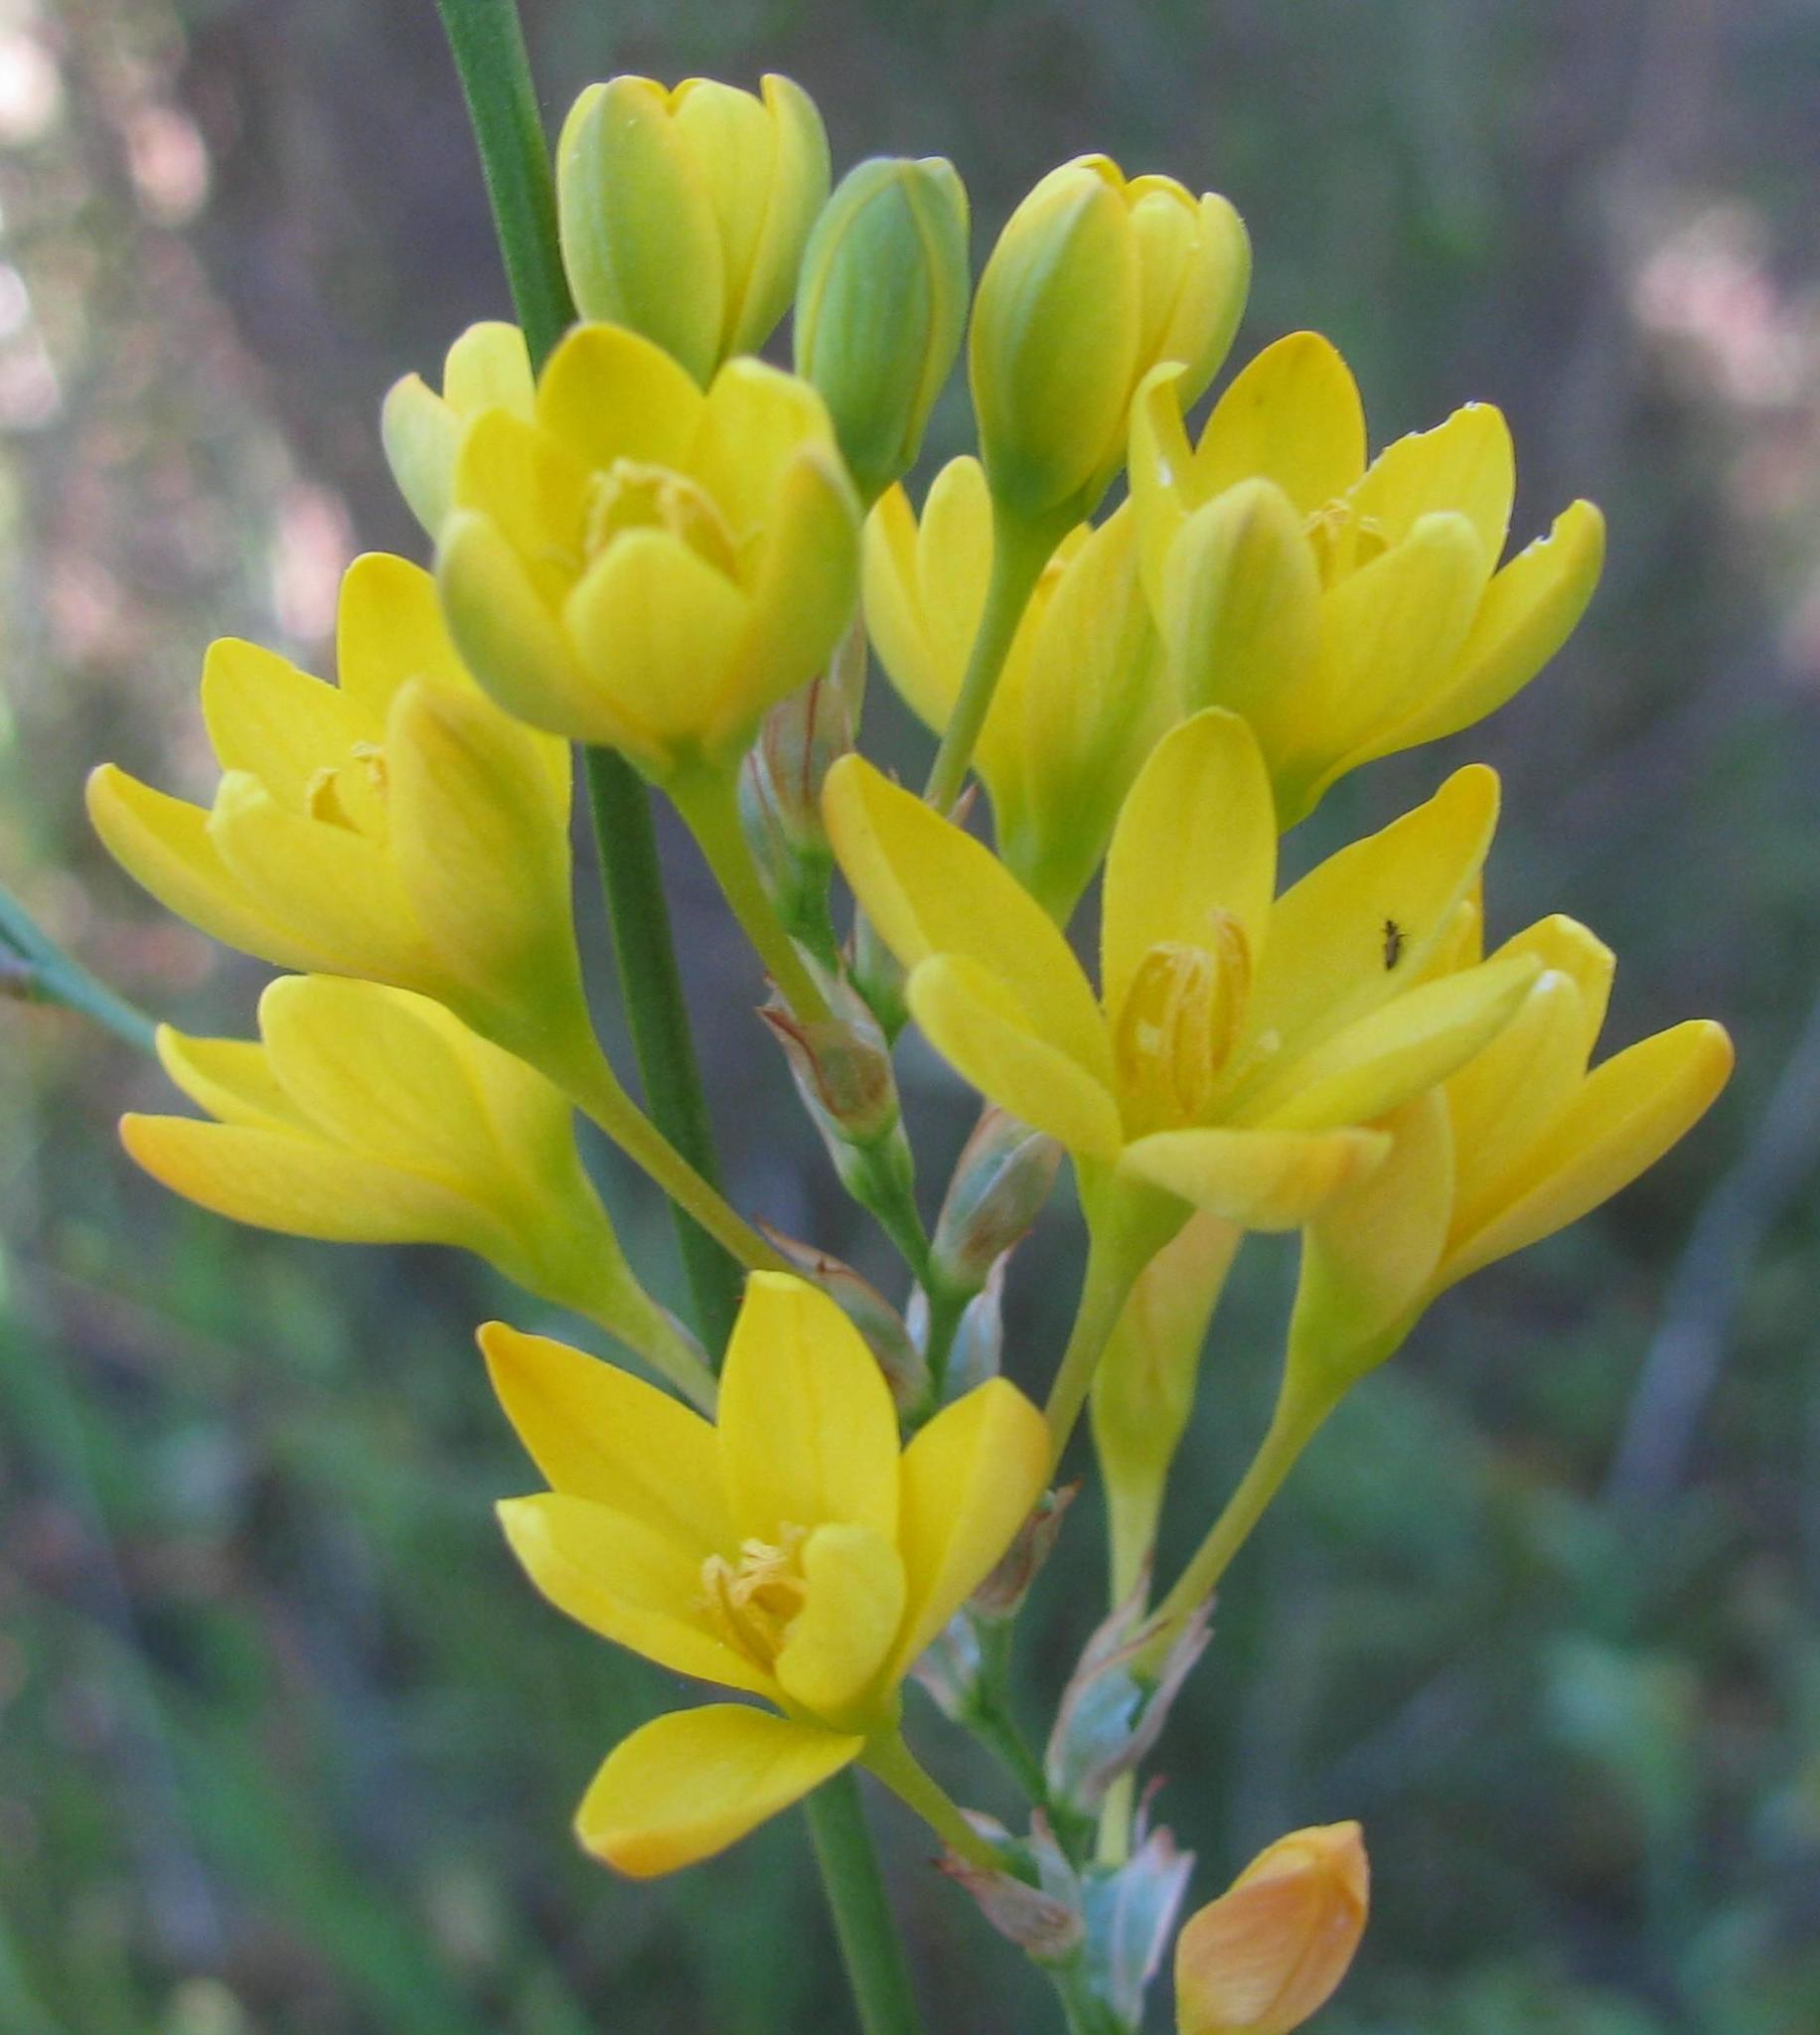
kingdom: Plantae
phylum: Tracheophyta
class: Liliopsida
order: Asparagales
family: Iridaceae
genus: Ixia
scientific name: Ixia odorata
